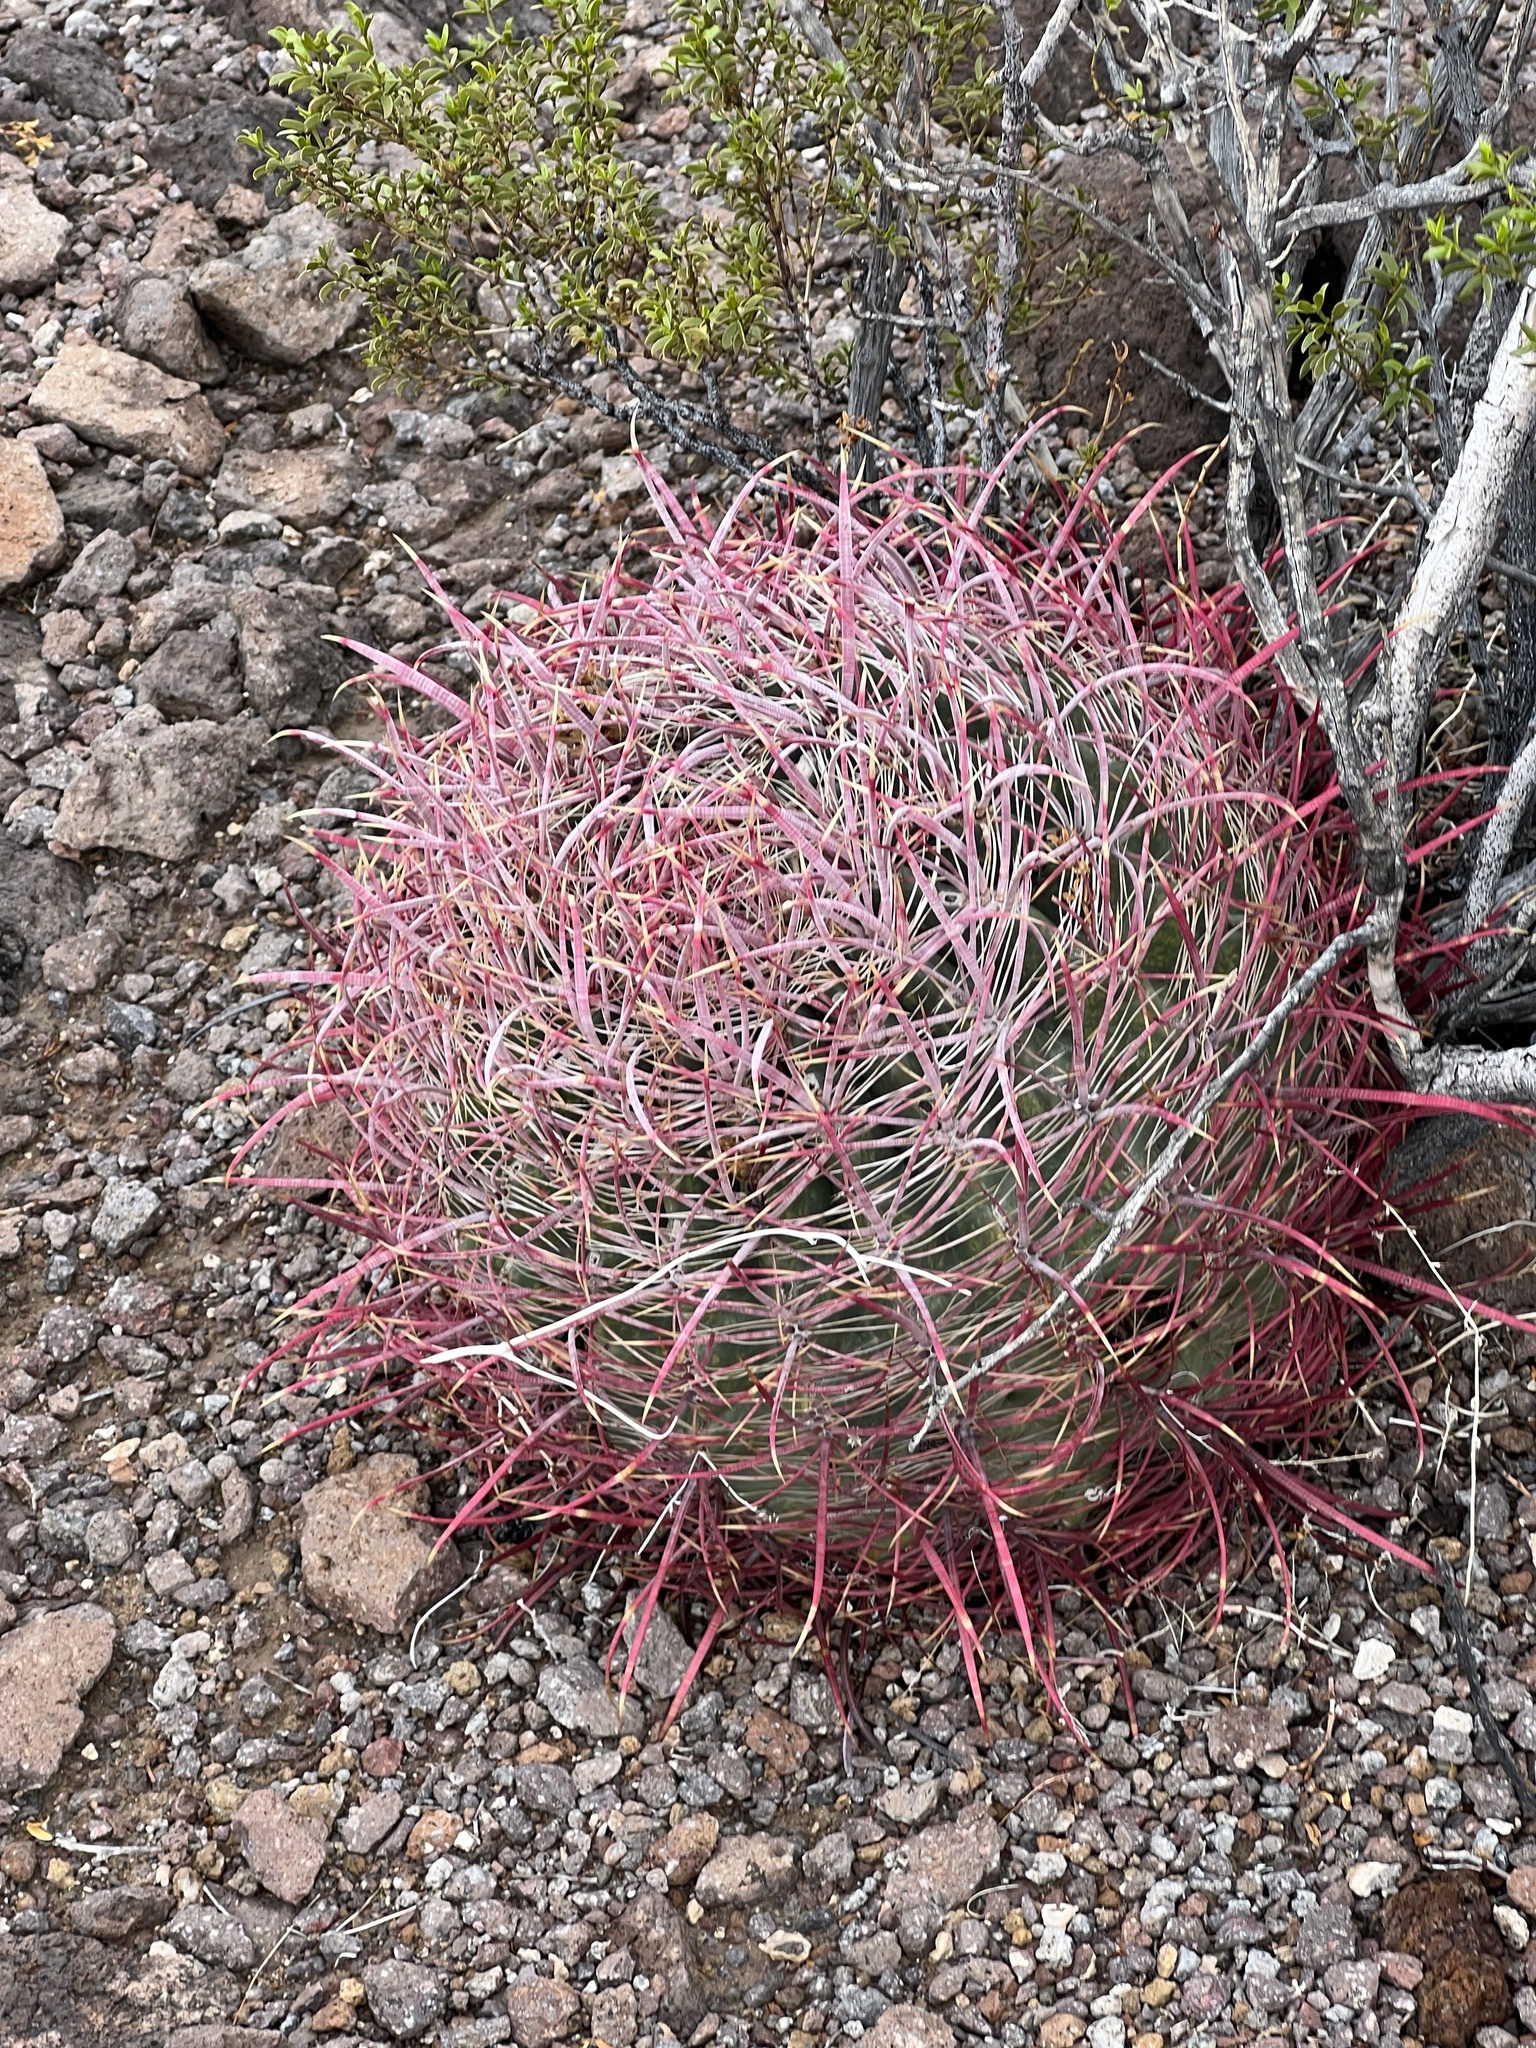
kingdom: Plantae
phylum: Tracheophyta
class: Magnoliopsida
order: Caryophyllales
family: Cactaceae
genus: Ferocactus
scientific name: Ferocactus cylindraceus
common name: California barrel cactus
